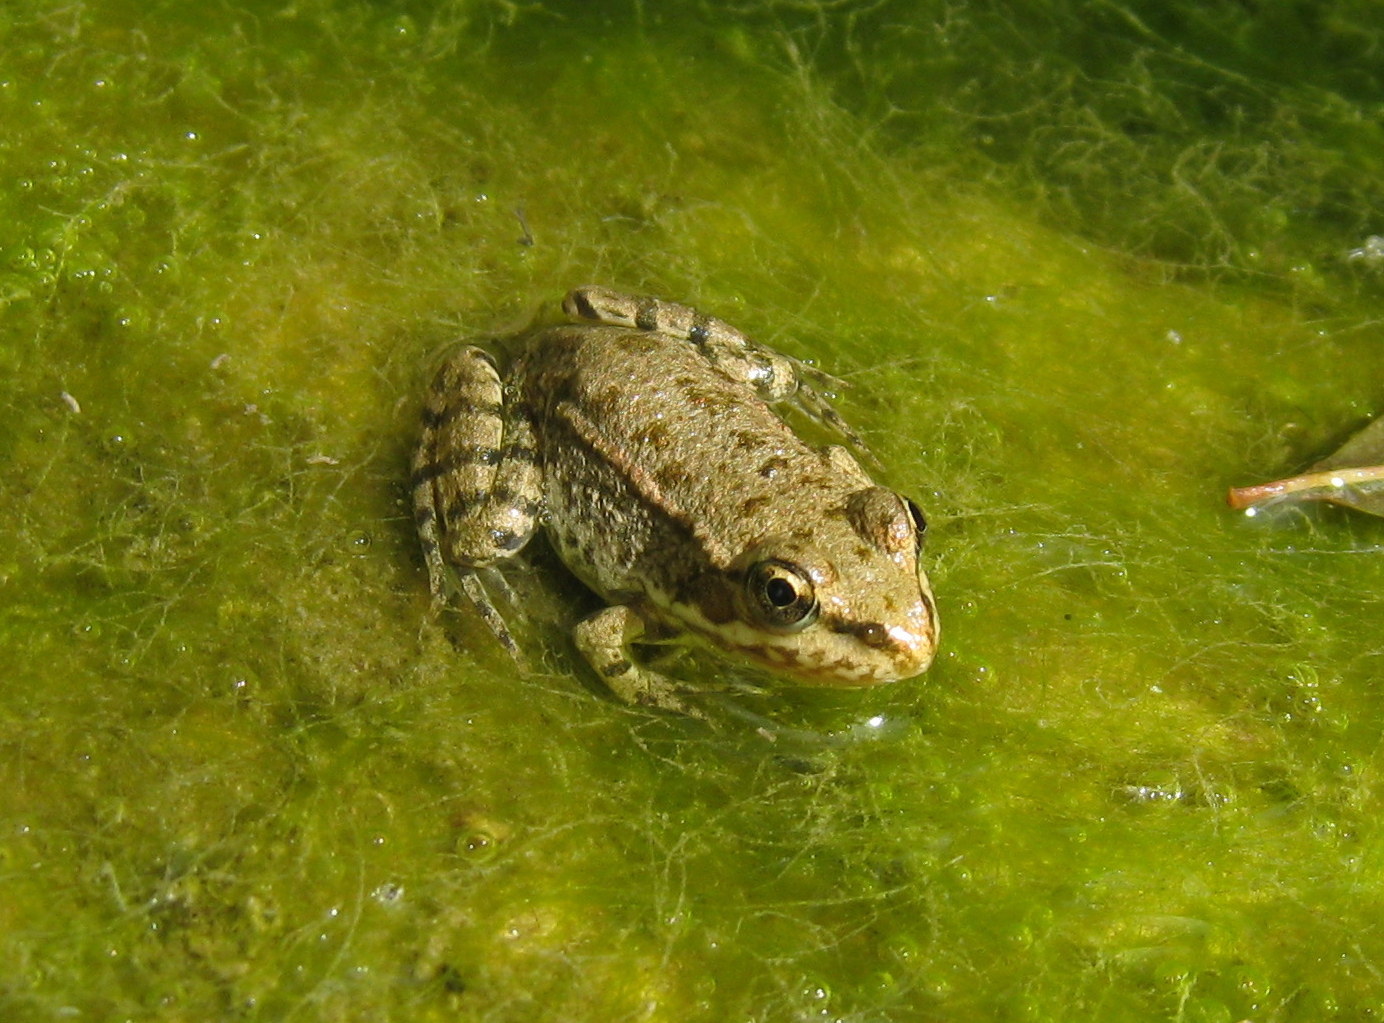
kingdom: Animalia
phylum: Chordata
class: Amphibia
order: Anura
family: Ranidae
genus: Pelophylax
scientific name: Pelophylax
